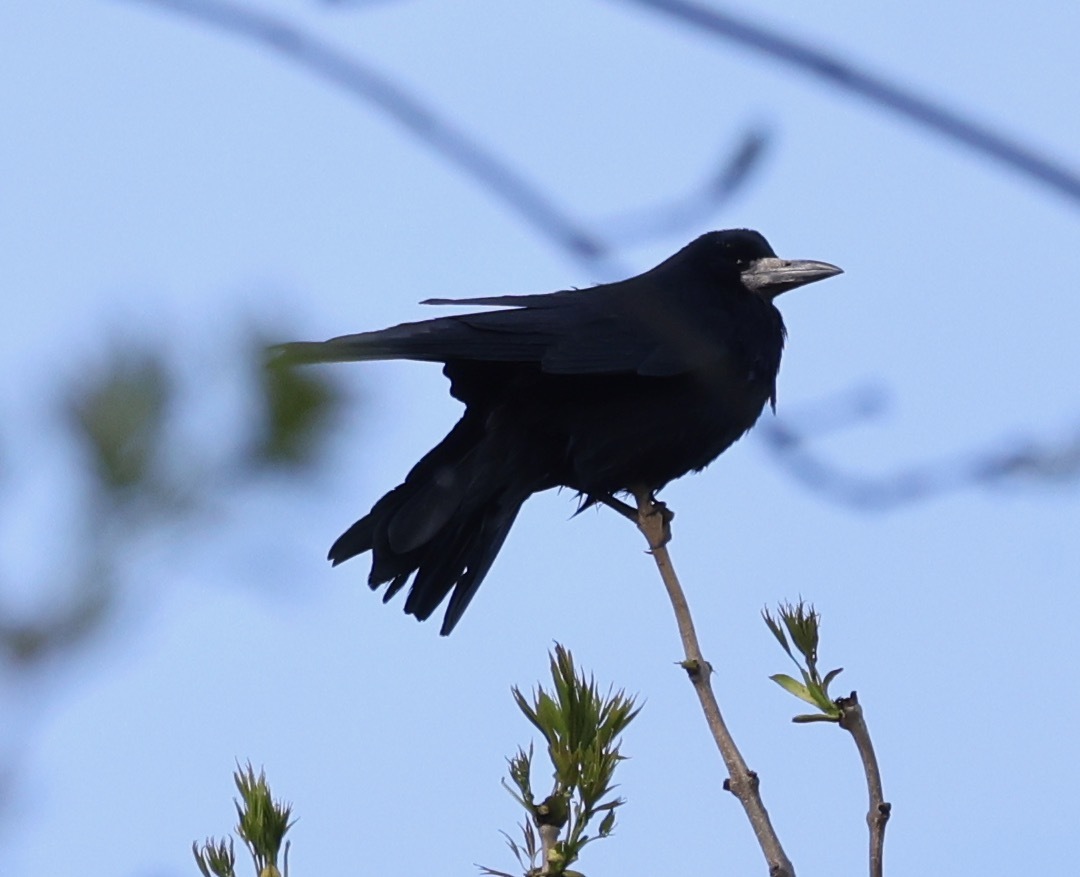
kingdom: Animalia
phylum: Chordata
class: Aves
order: Passeriformes
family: Corvidae
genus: Corvus
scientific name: Corvus frugilegus
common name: Rook
